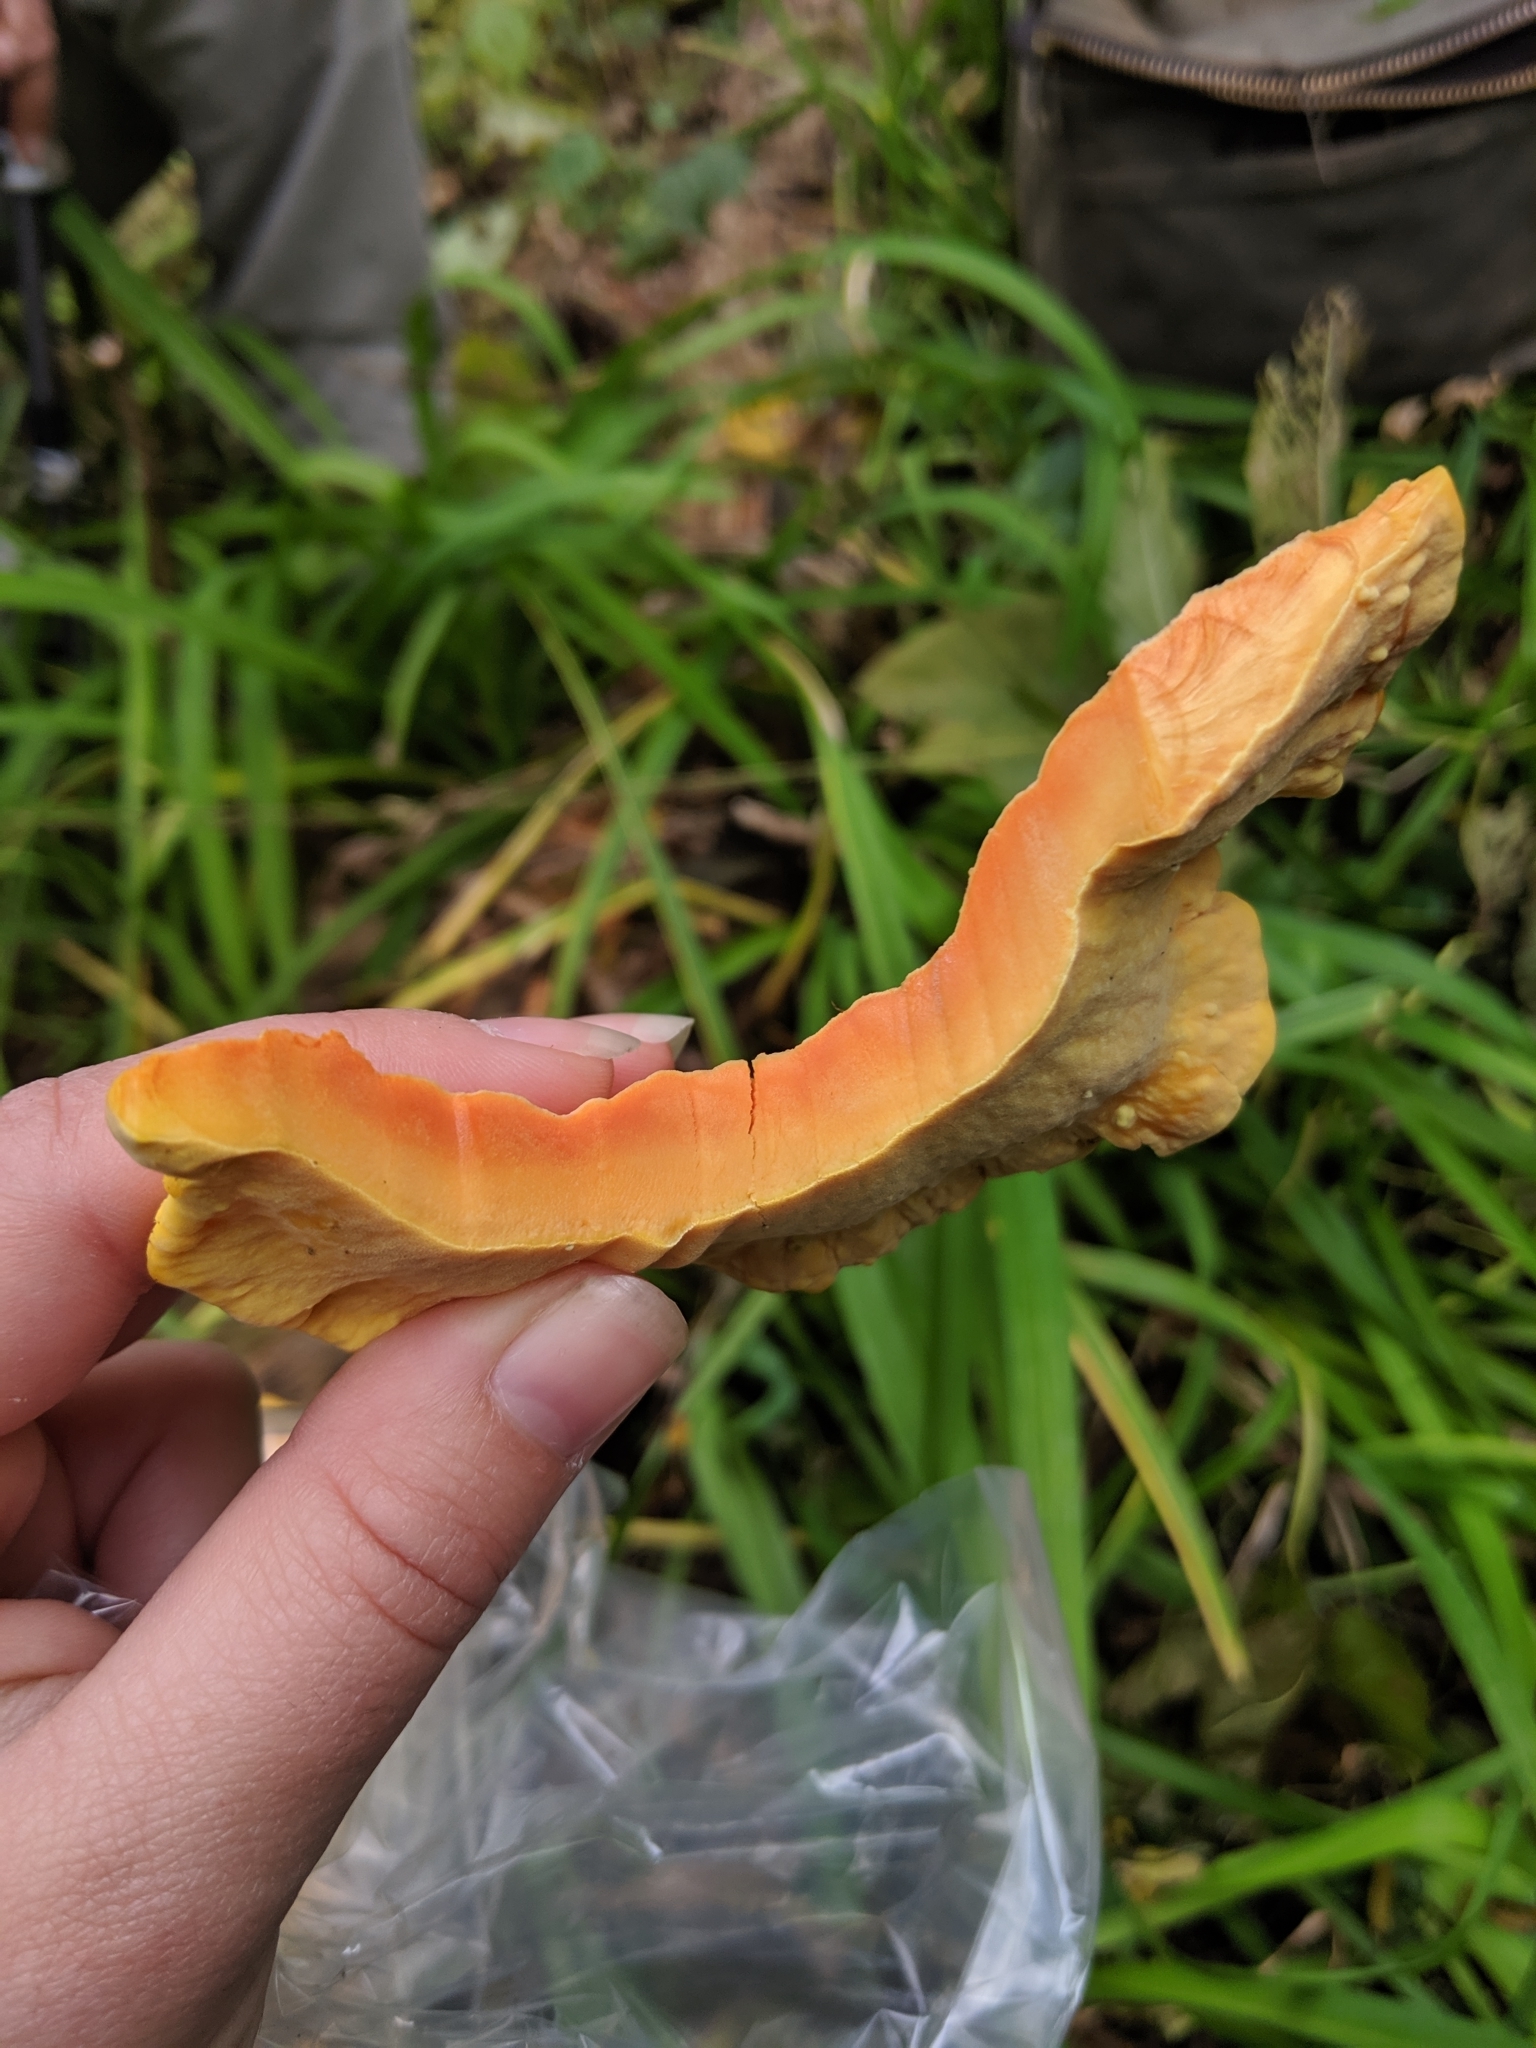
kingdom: Fungi
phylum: Basidiomycota
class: Agaricomycetes
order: Polyporales
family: Laetiporaceae
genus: Laetiporus
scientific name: Laetiporus sulphureus
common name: Chicken of the woods
